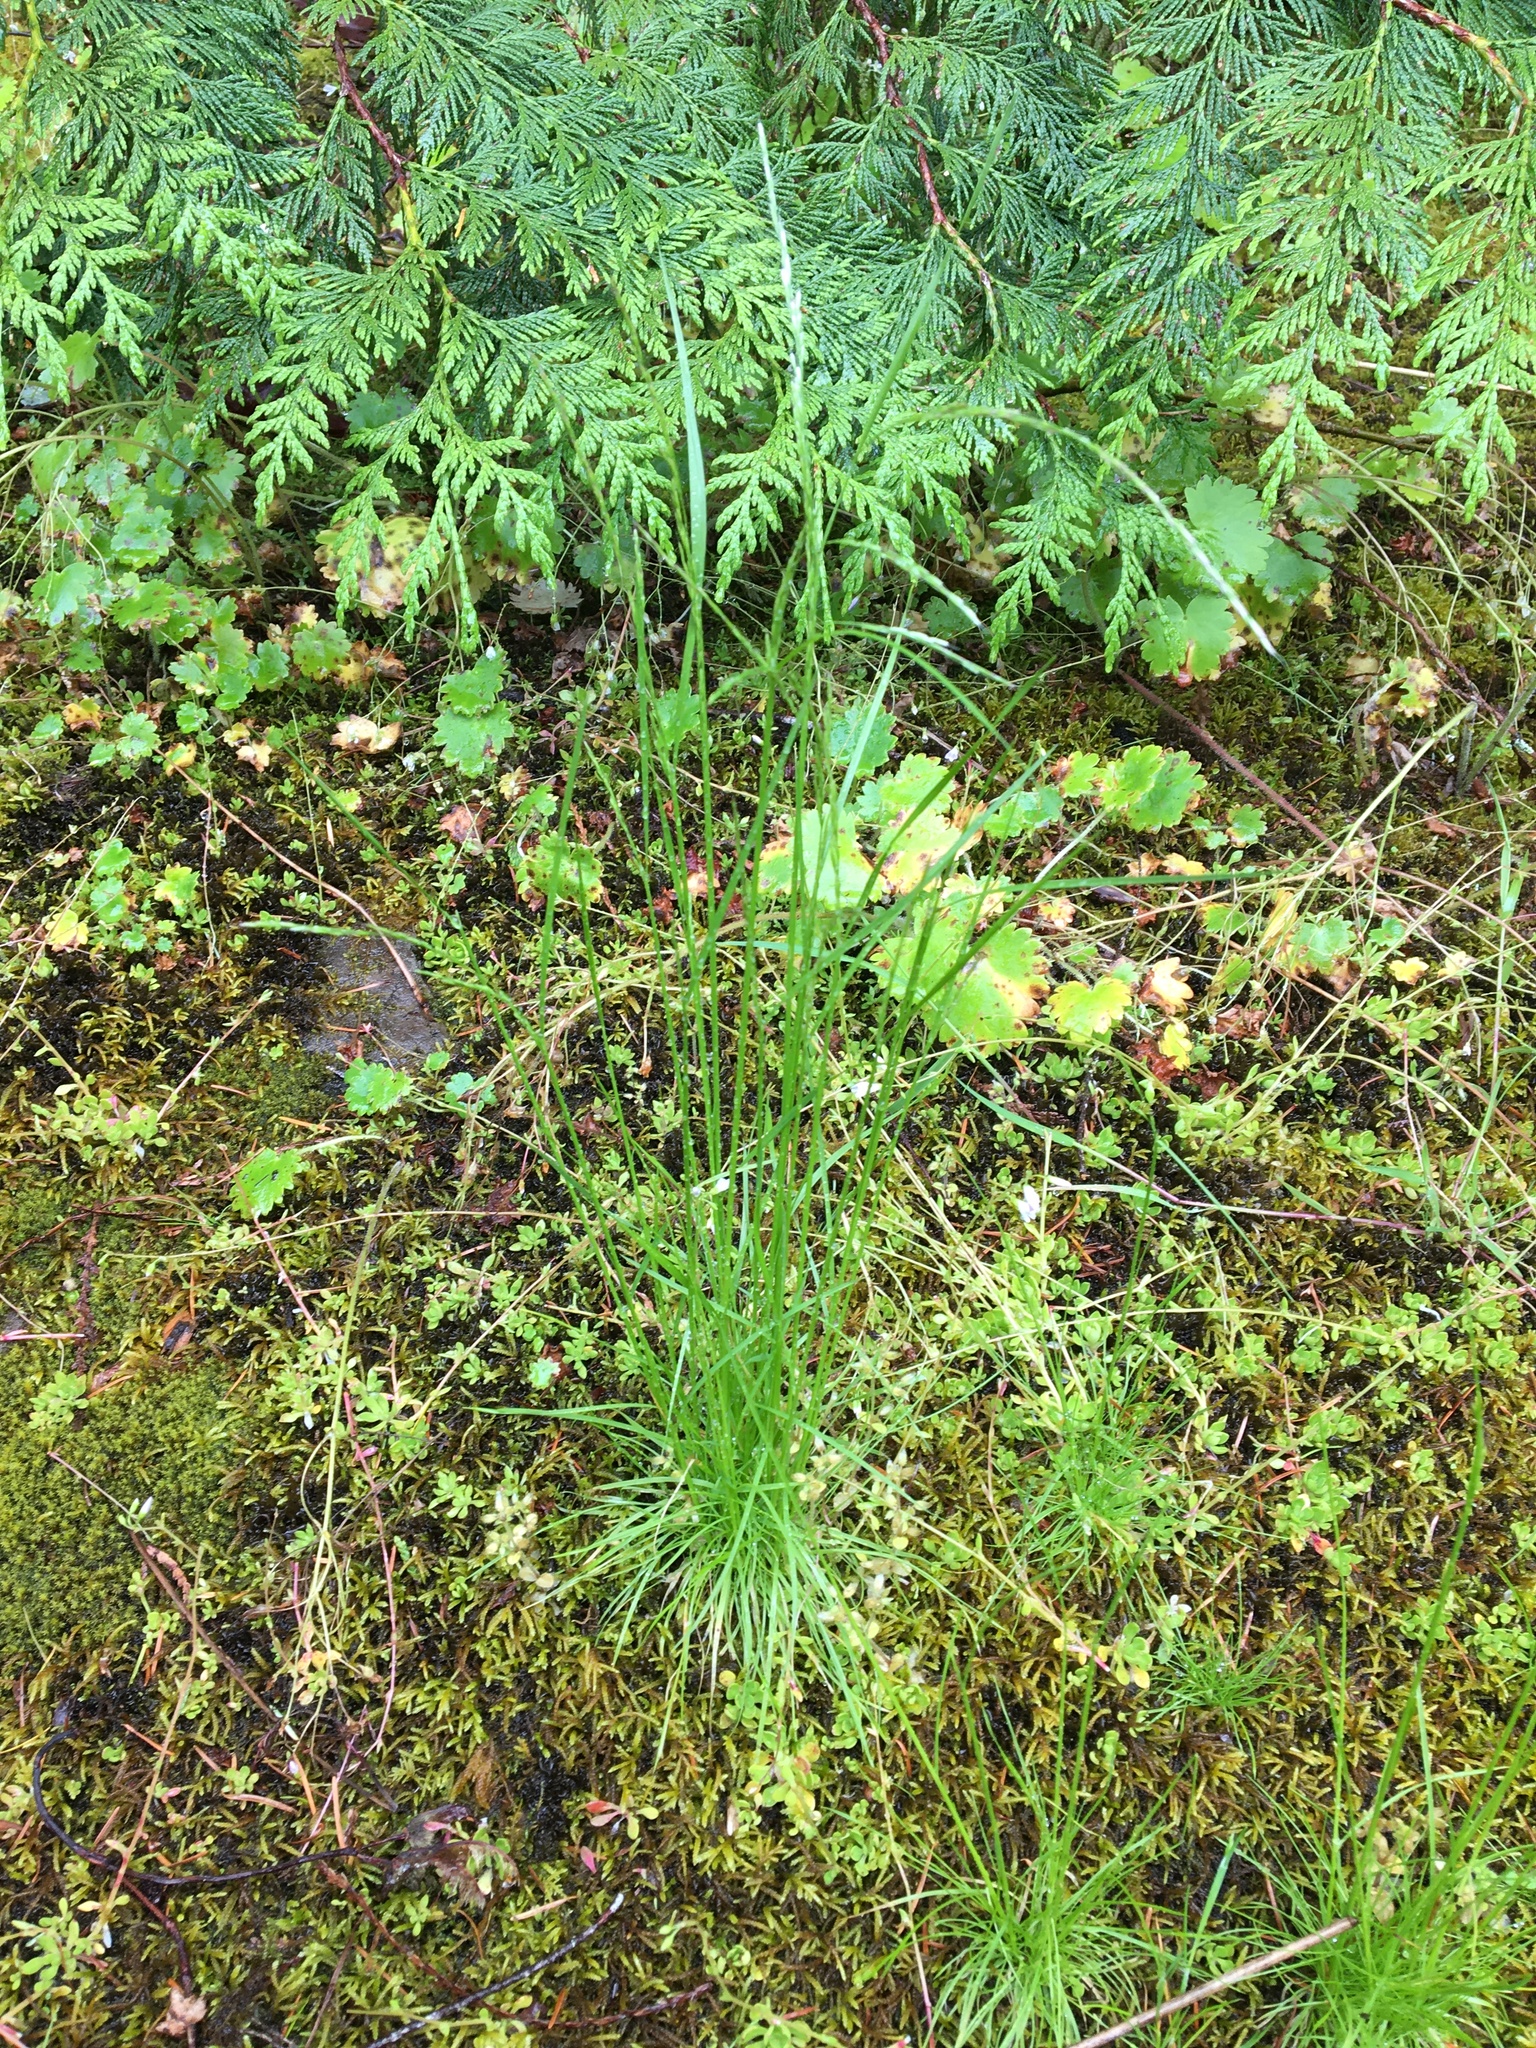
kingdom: Plantae
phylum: Tracheophyta
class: Liliopsida
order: Poales
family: Poaceae
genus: Deschampsia
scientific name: Deschampsia danthonioides
